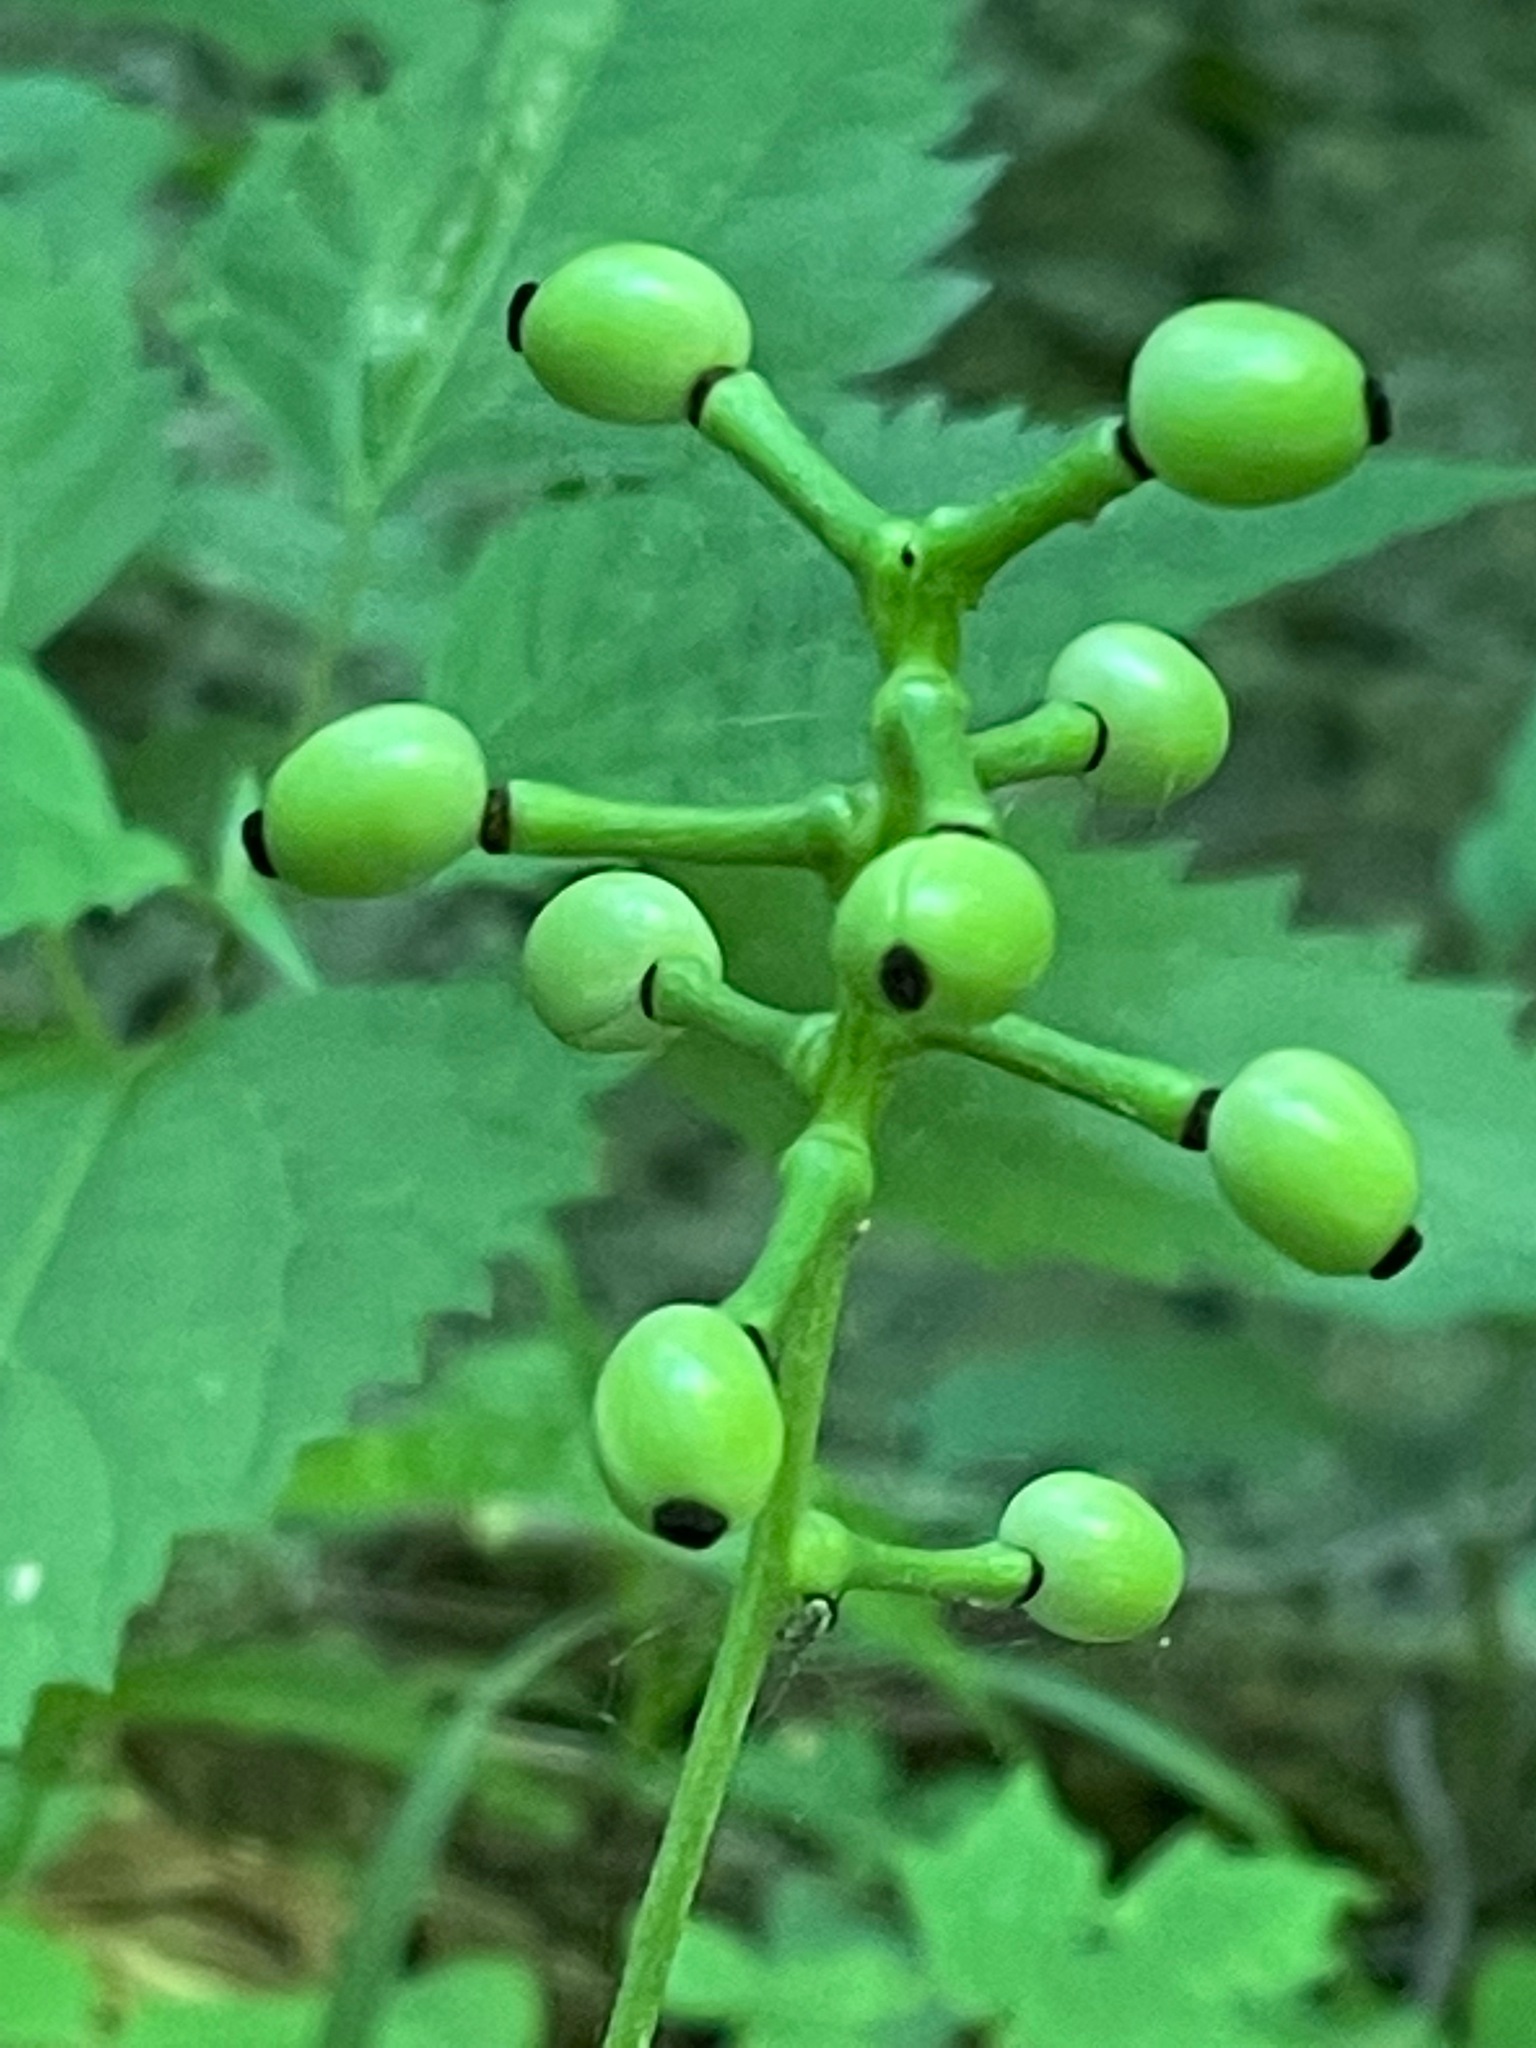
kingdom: Plantae
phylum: Tracheophyta
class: Magnoliopsida
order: Ranunculales
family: Ranunculaceae
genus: Actaea
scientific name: Actaea pachypoda
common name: Doll's-eyes
